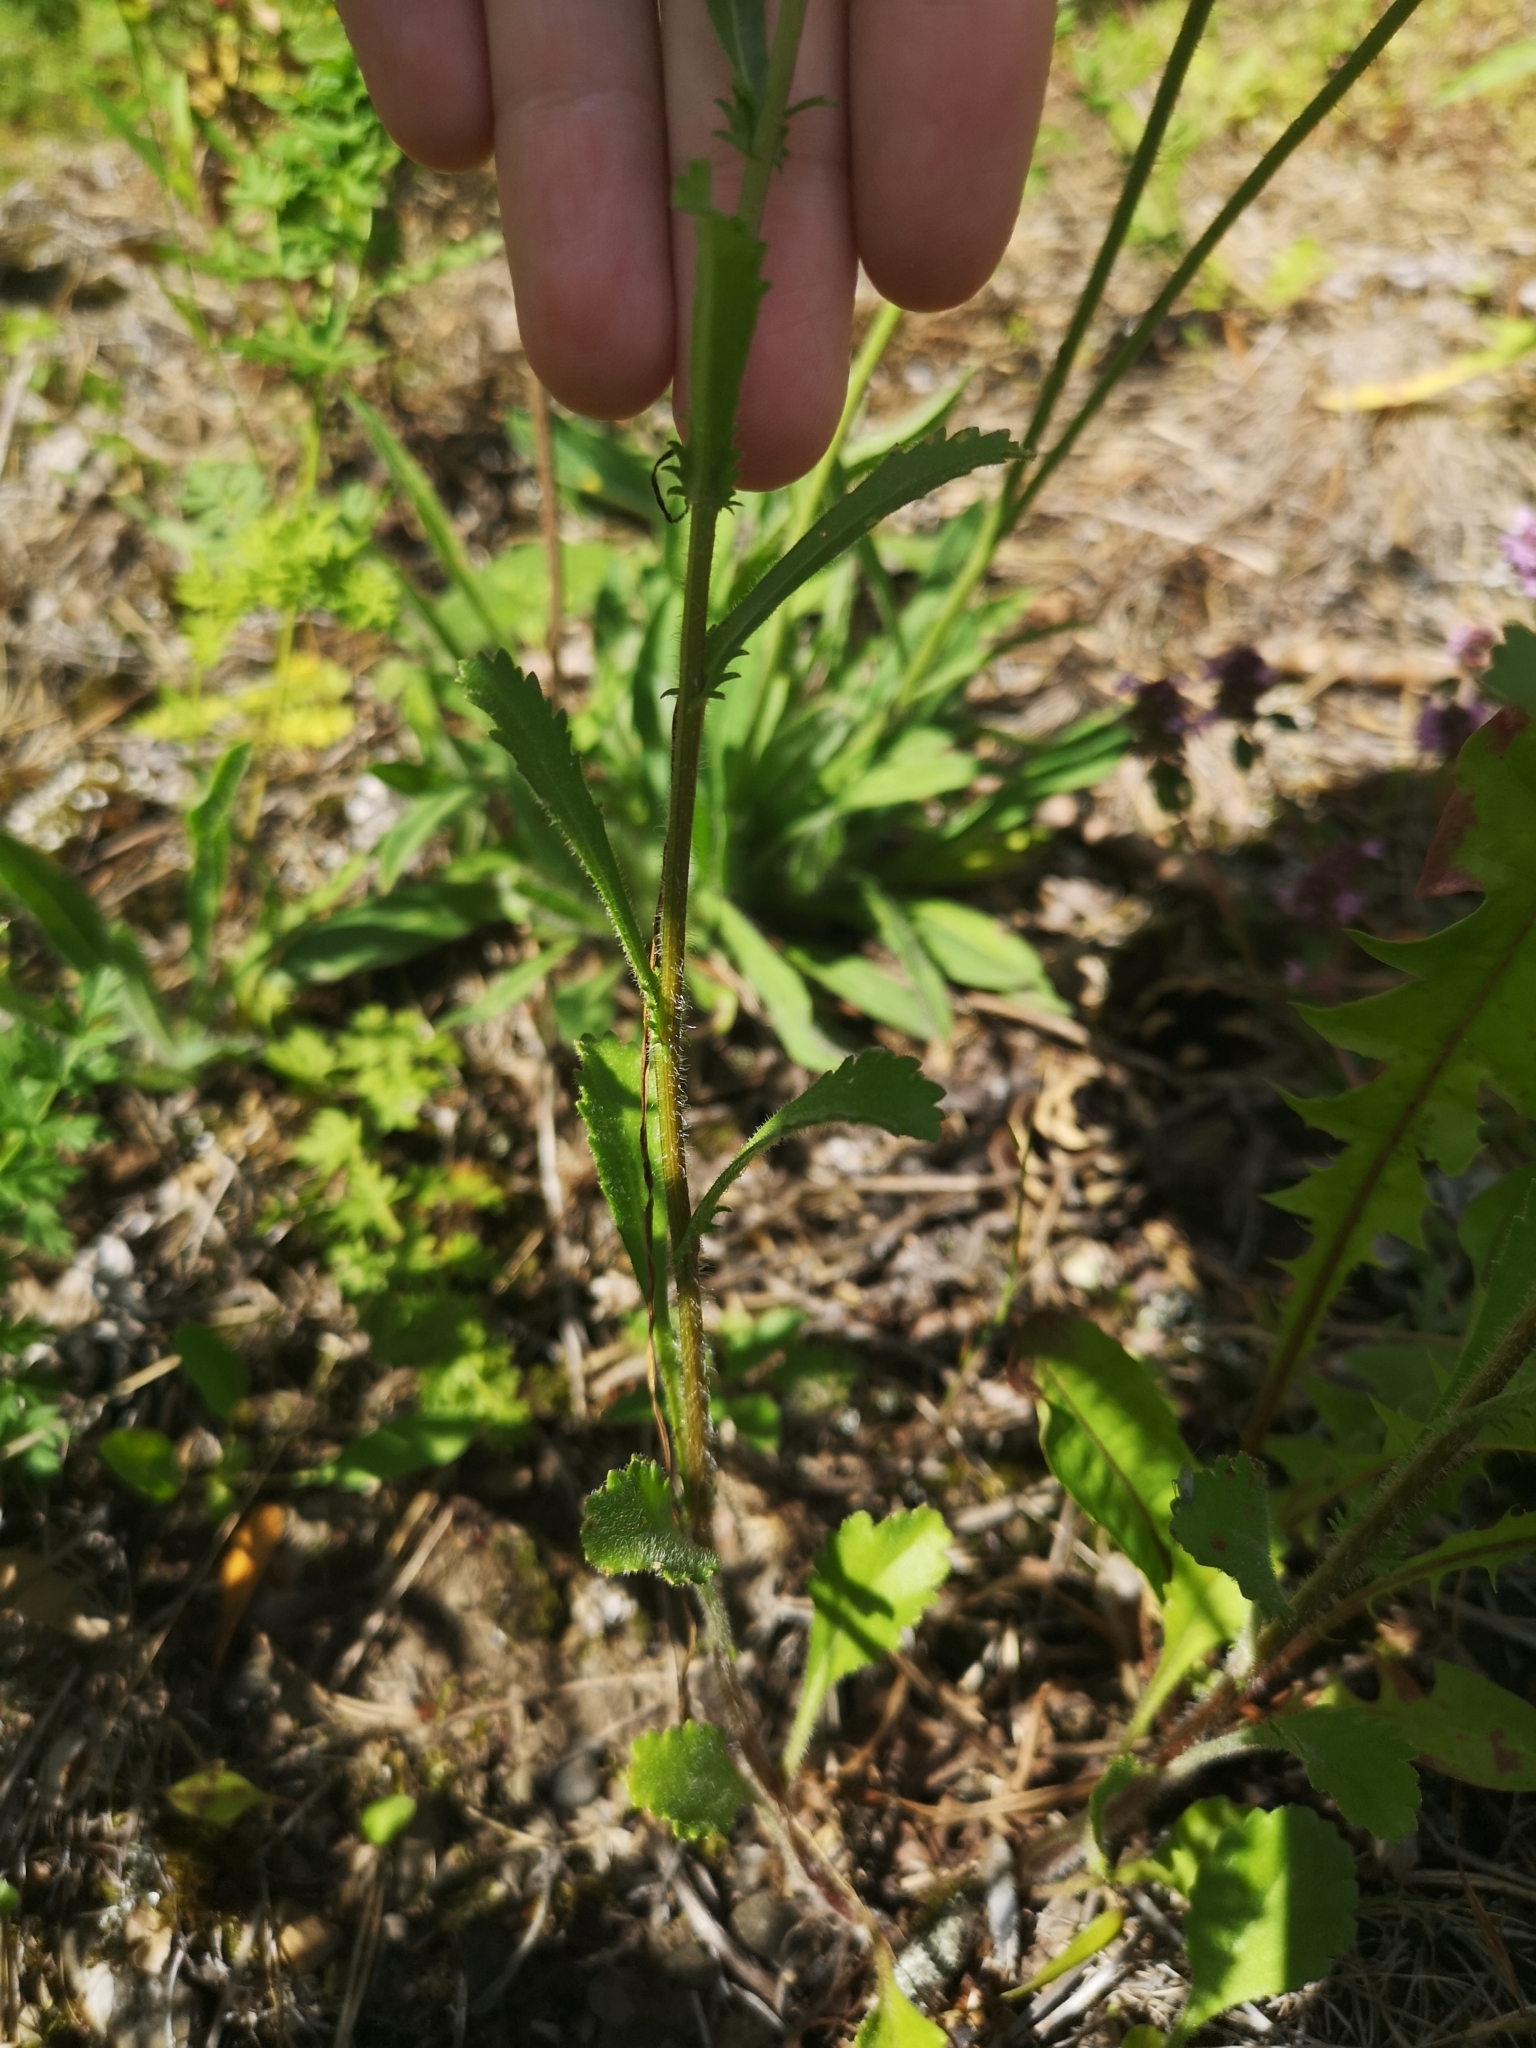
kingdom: Plantae
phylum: Tracheophyta
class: Magnoliopsida
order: Asterales
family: Asteraceae
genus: Leucanthemum
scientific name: Leucanthemum vulgare
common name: Oxeye daisy
